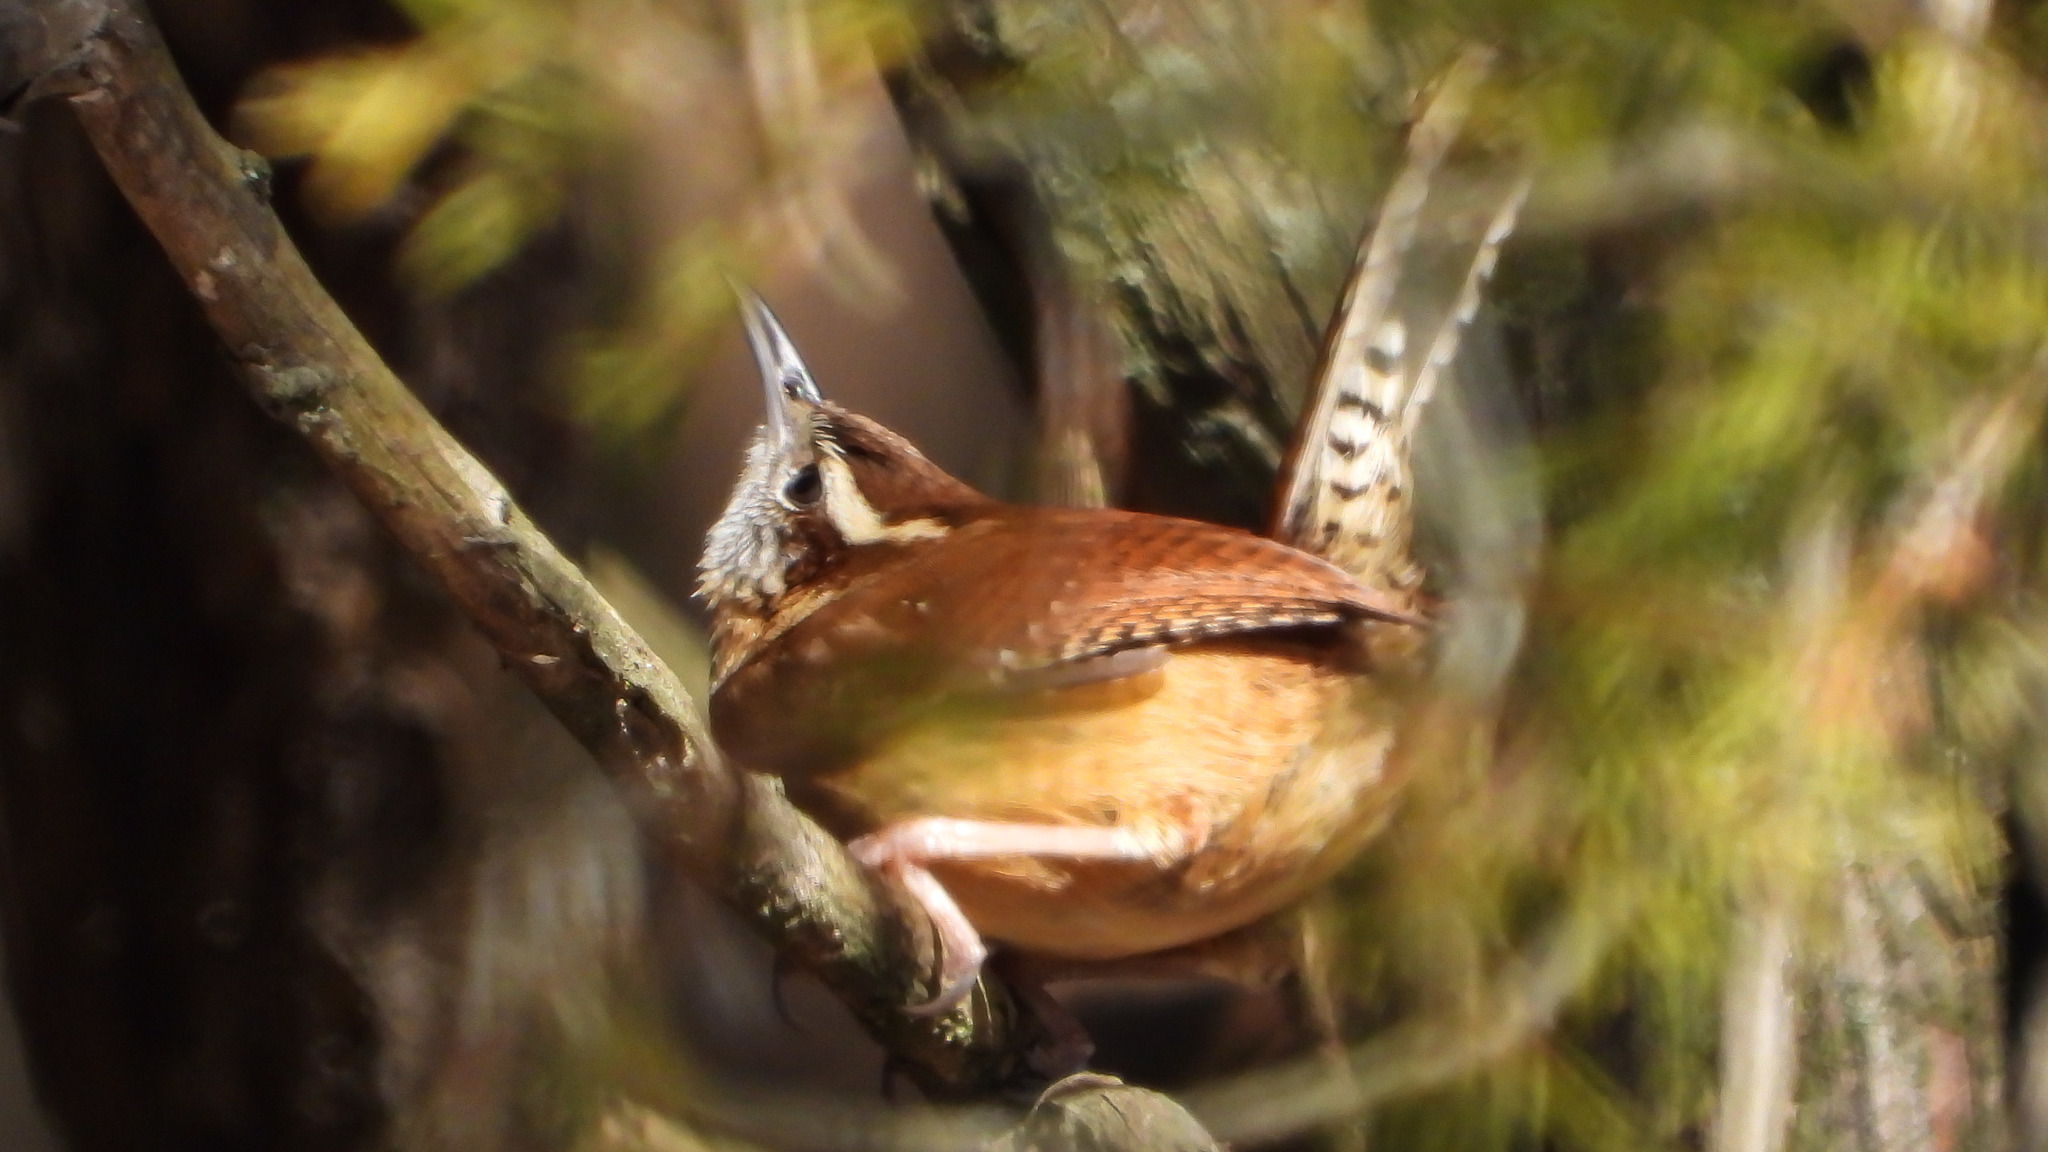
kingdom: Animalia
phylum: Chordata
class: Aves
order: Passeriformes
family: Troglodytidae
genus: Thryothorus
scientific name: Thryothorus ludovicianus
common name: Carolina wren
